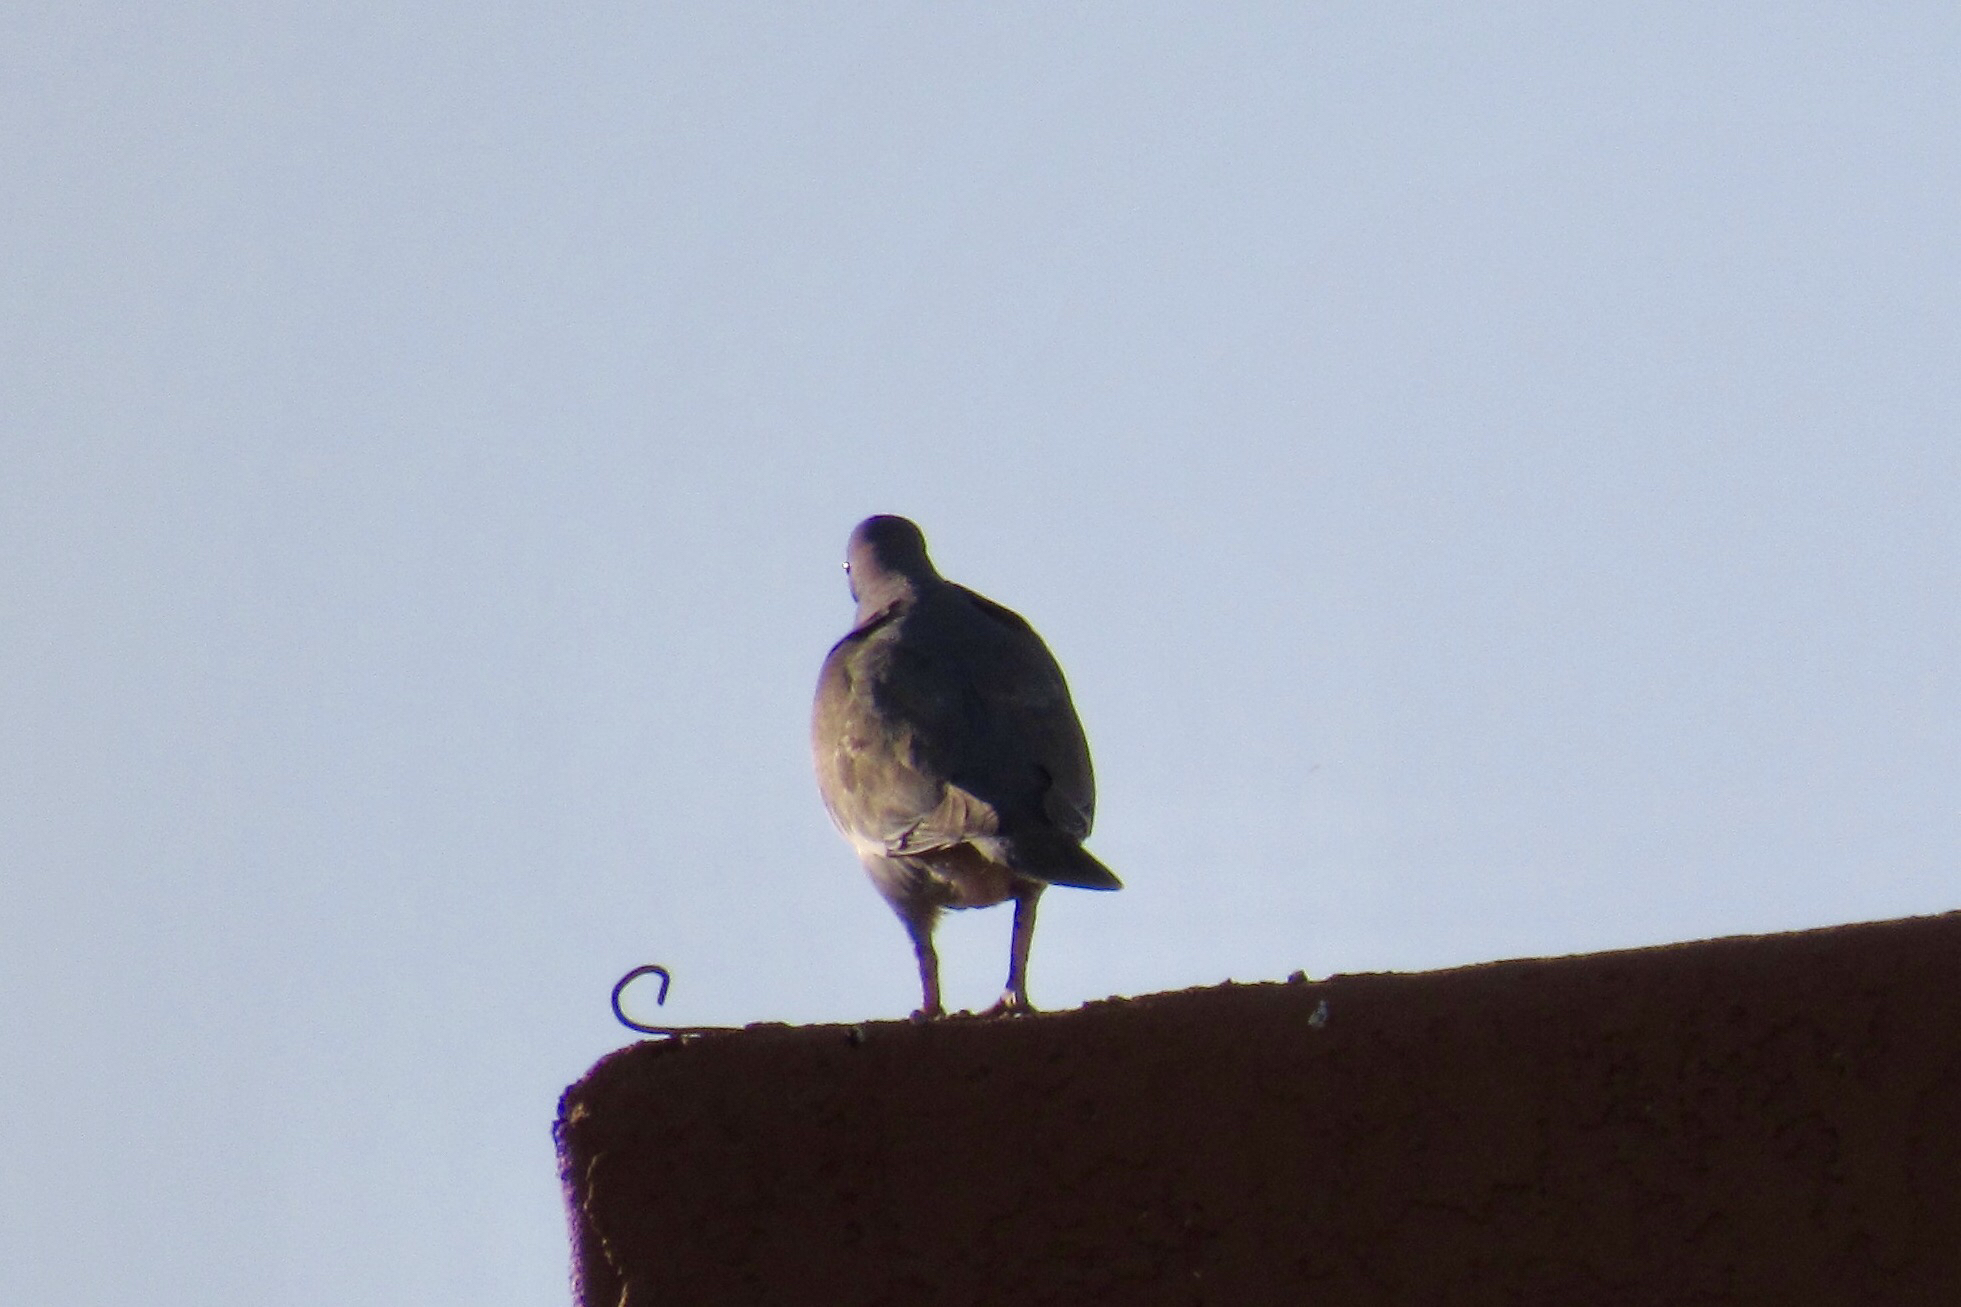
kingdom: Animalia
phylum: Chordata
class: Aves
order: Columbiformes
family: Columbidae
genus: Zenaida
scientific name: Zenaida asiatica
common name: White-winged dove
